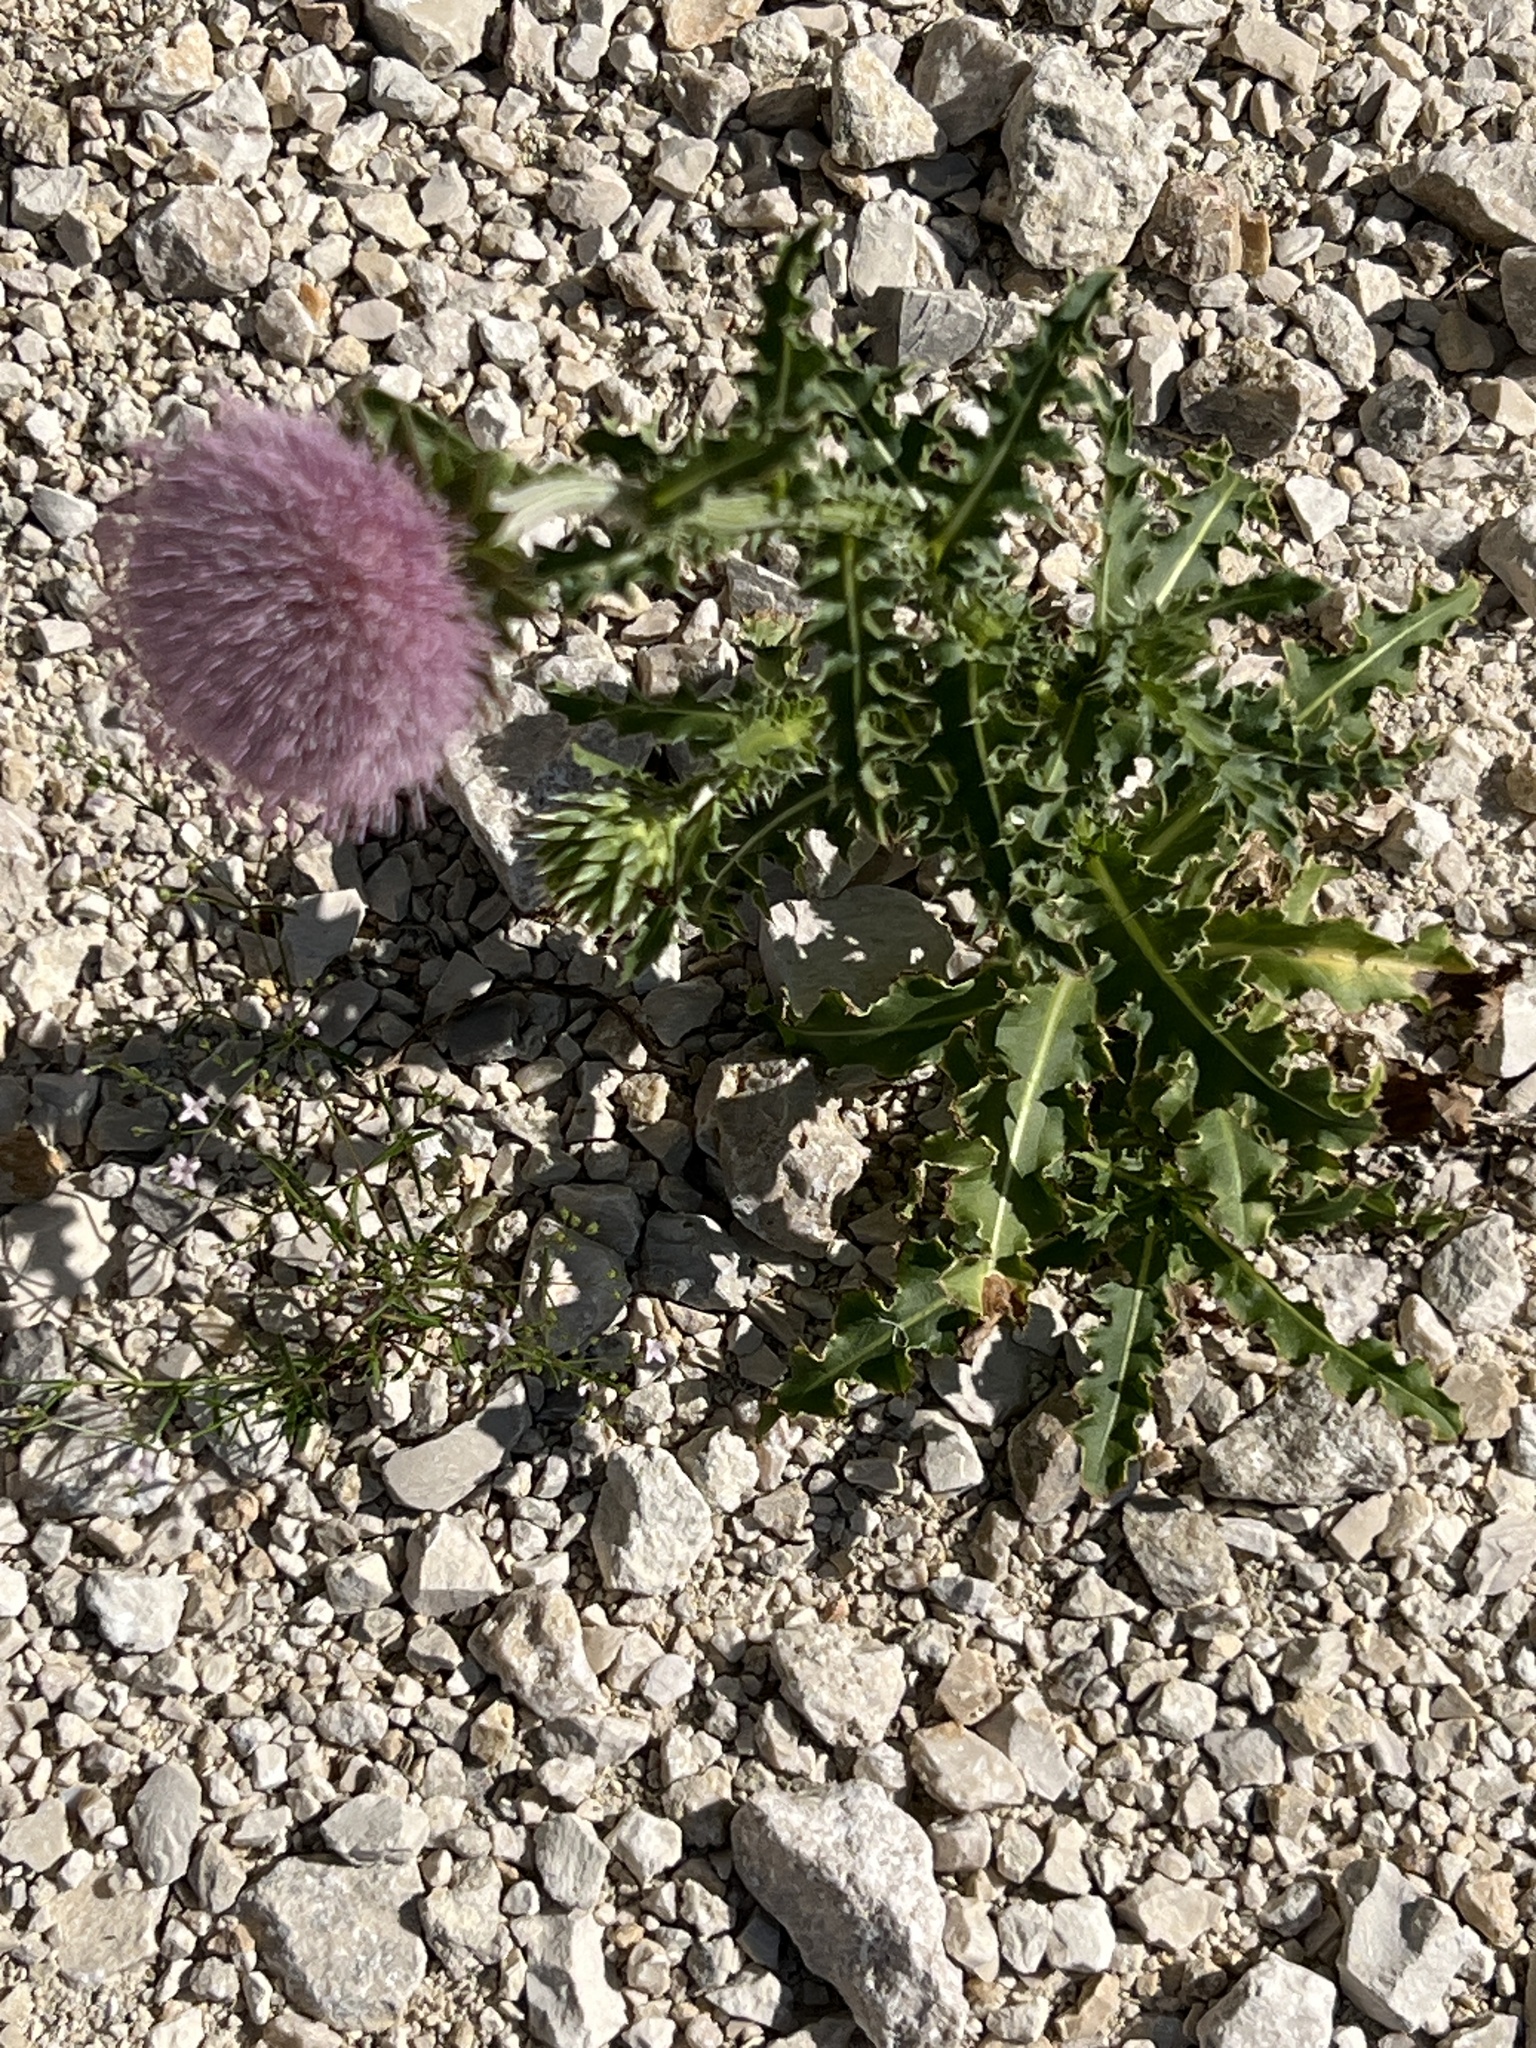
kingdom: Plantae
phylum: Tracheophyta
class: Magnoliopsida
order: Asterales
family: Asteraceae
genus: Carduus
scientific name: Carduus nutans
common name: Musk thistle
